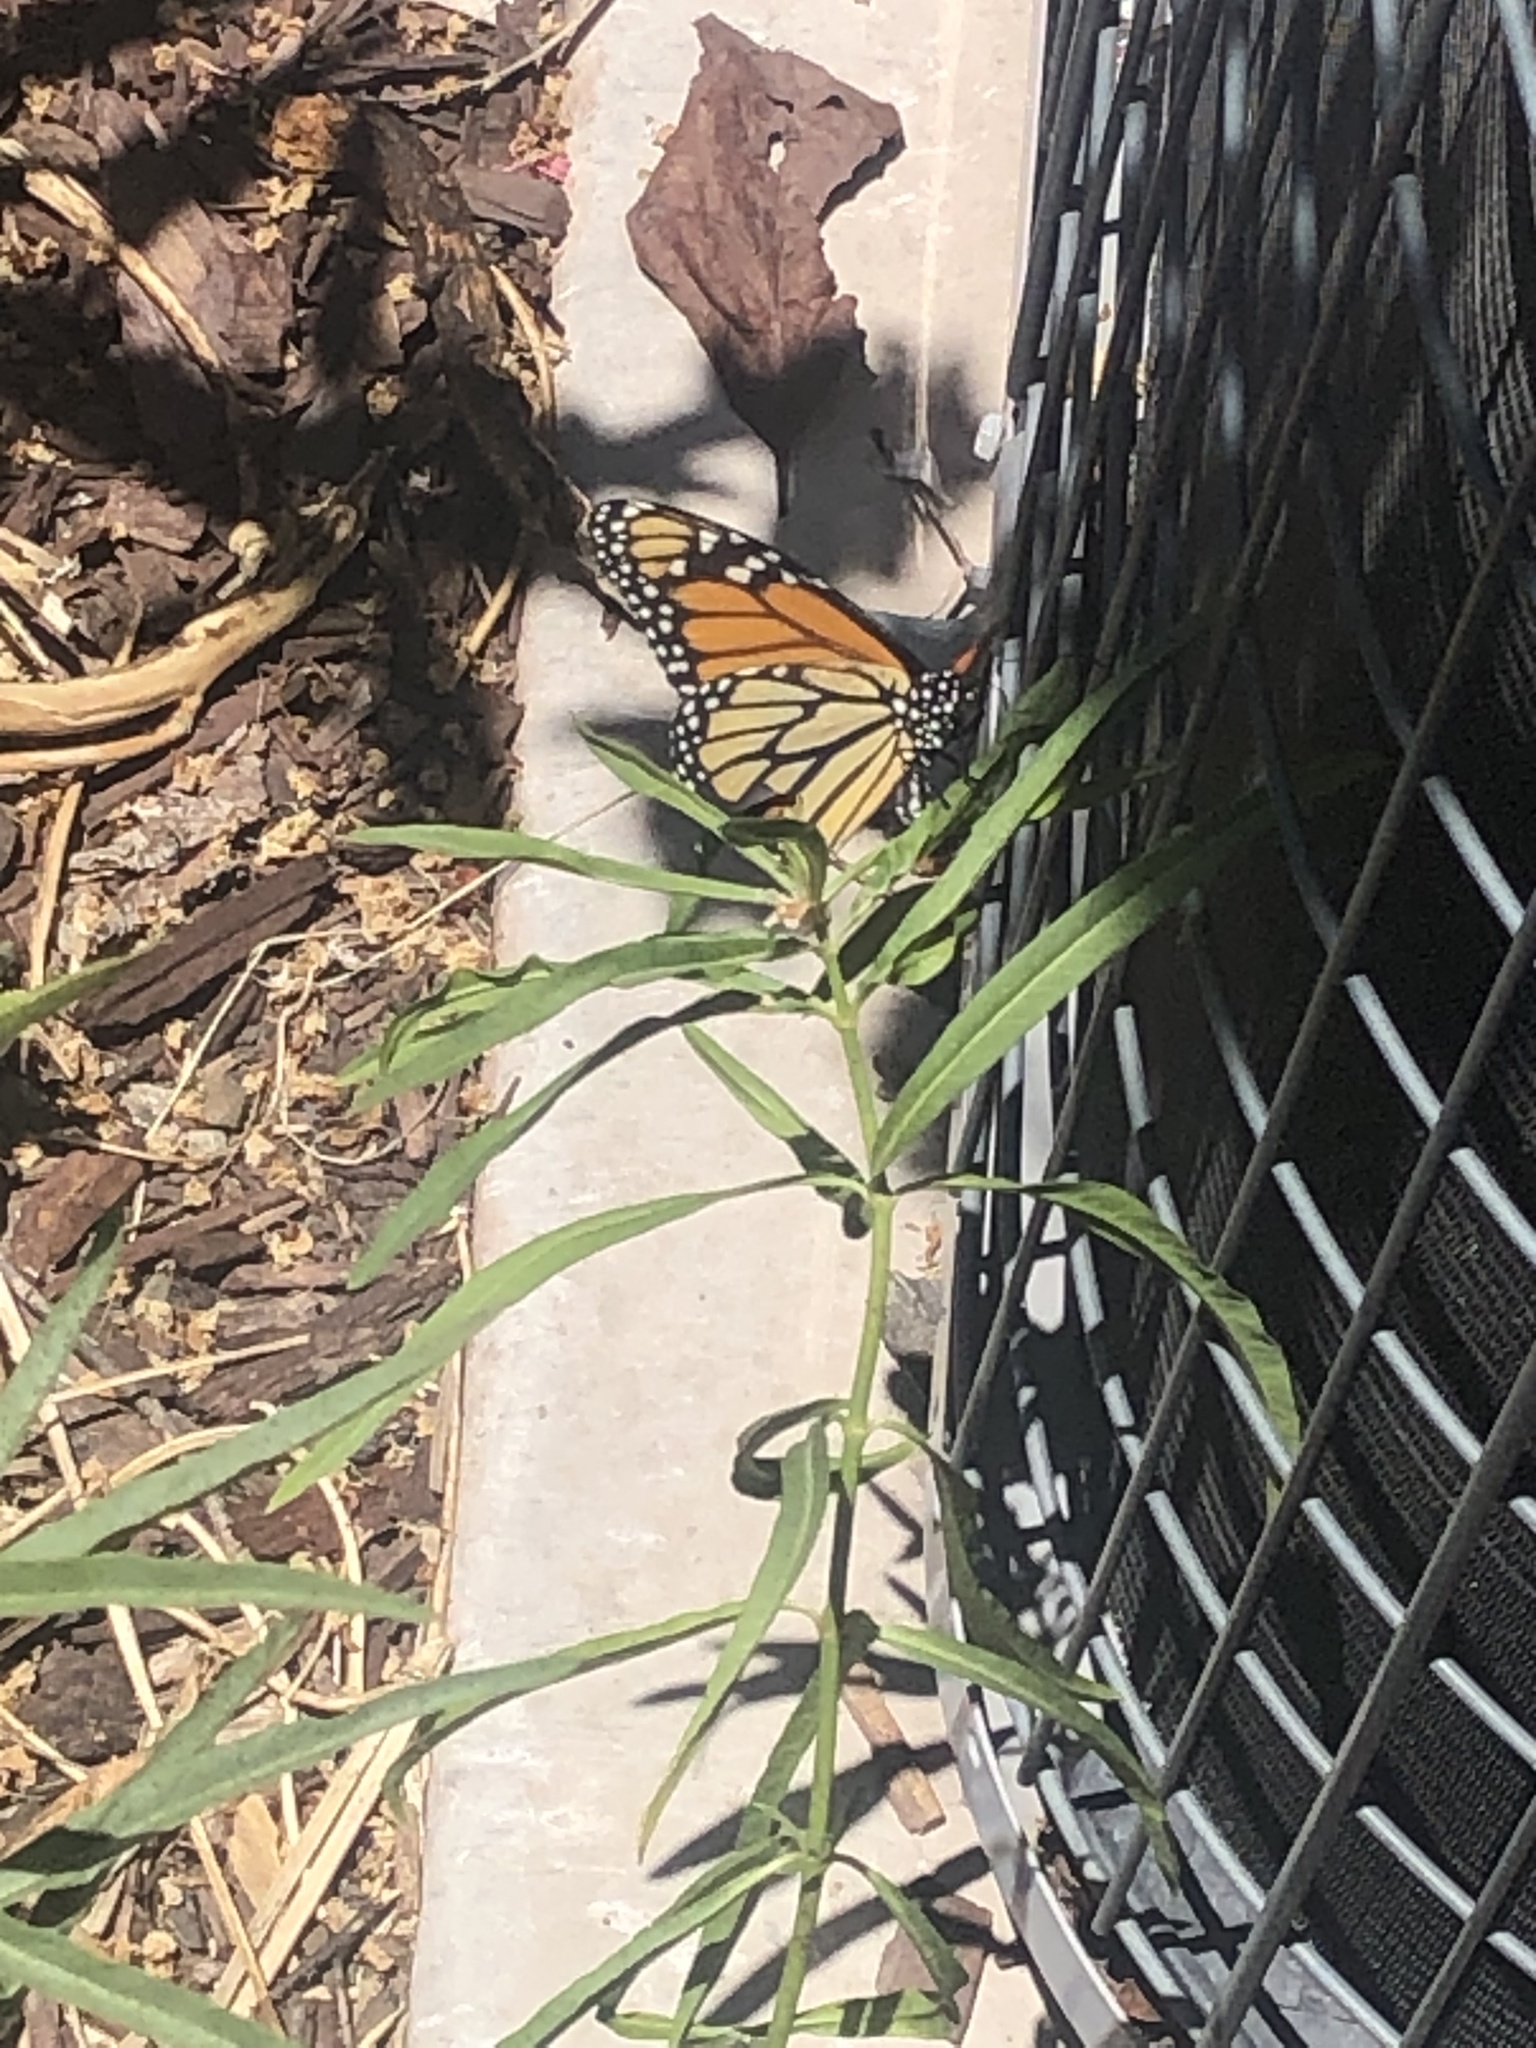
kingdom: Animalia
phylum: Arthropoda
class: Insecta
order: Lepidoptera
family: Nymphalidae
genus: Danaus
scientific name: Danaus plexippus
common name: Monarch
